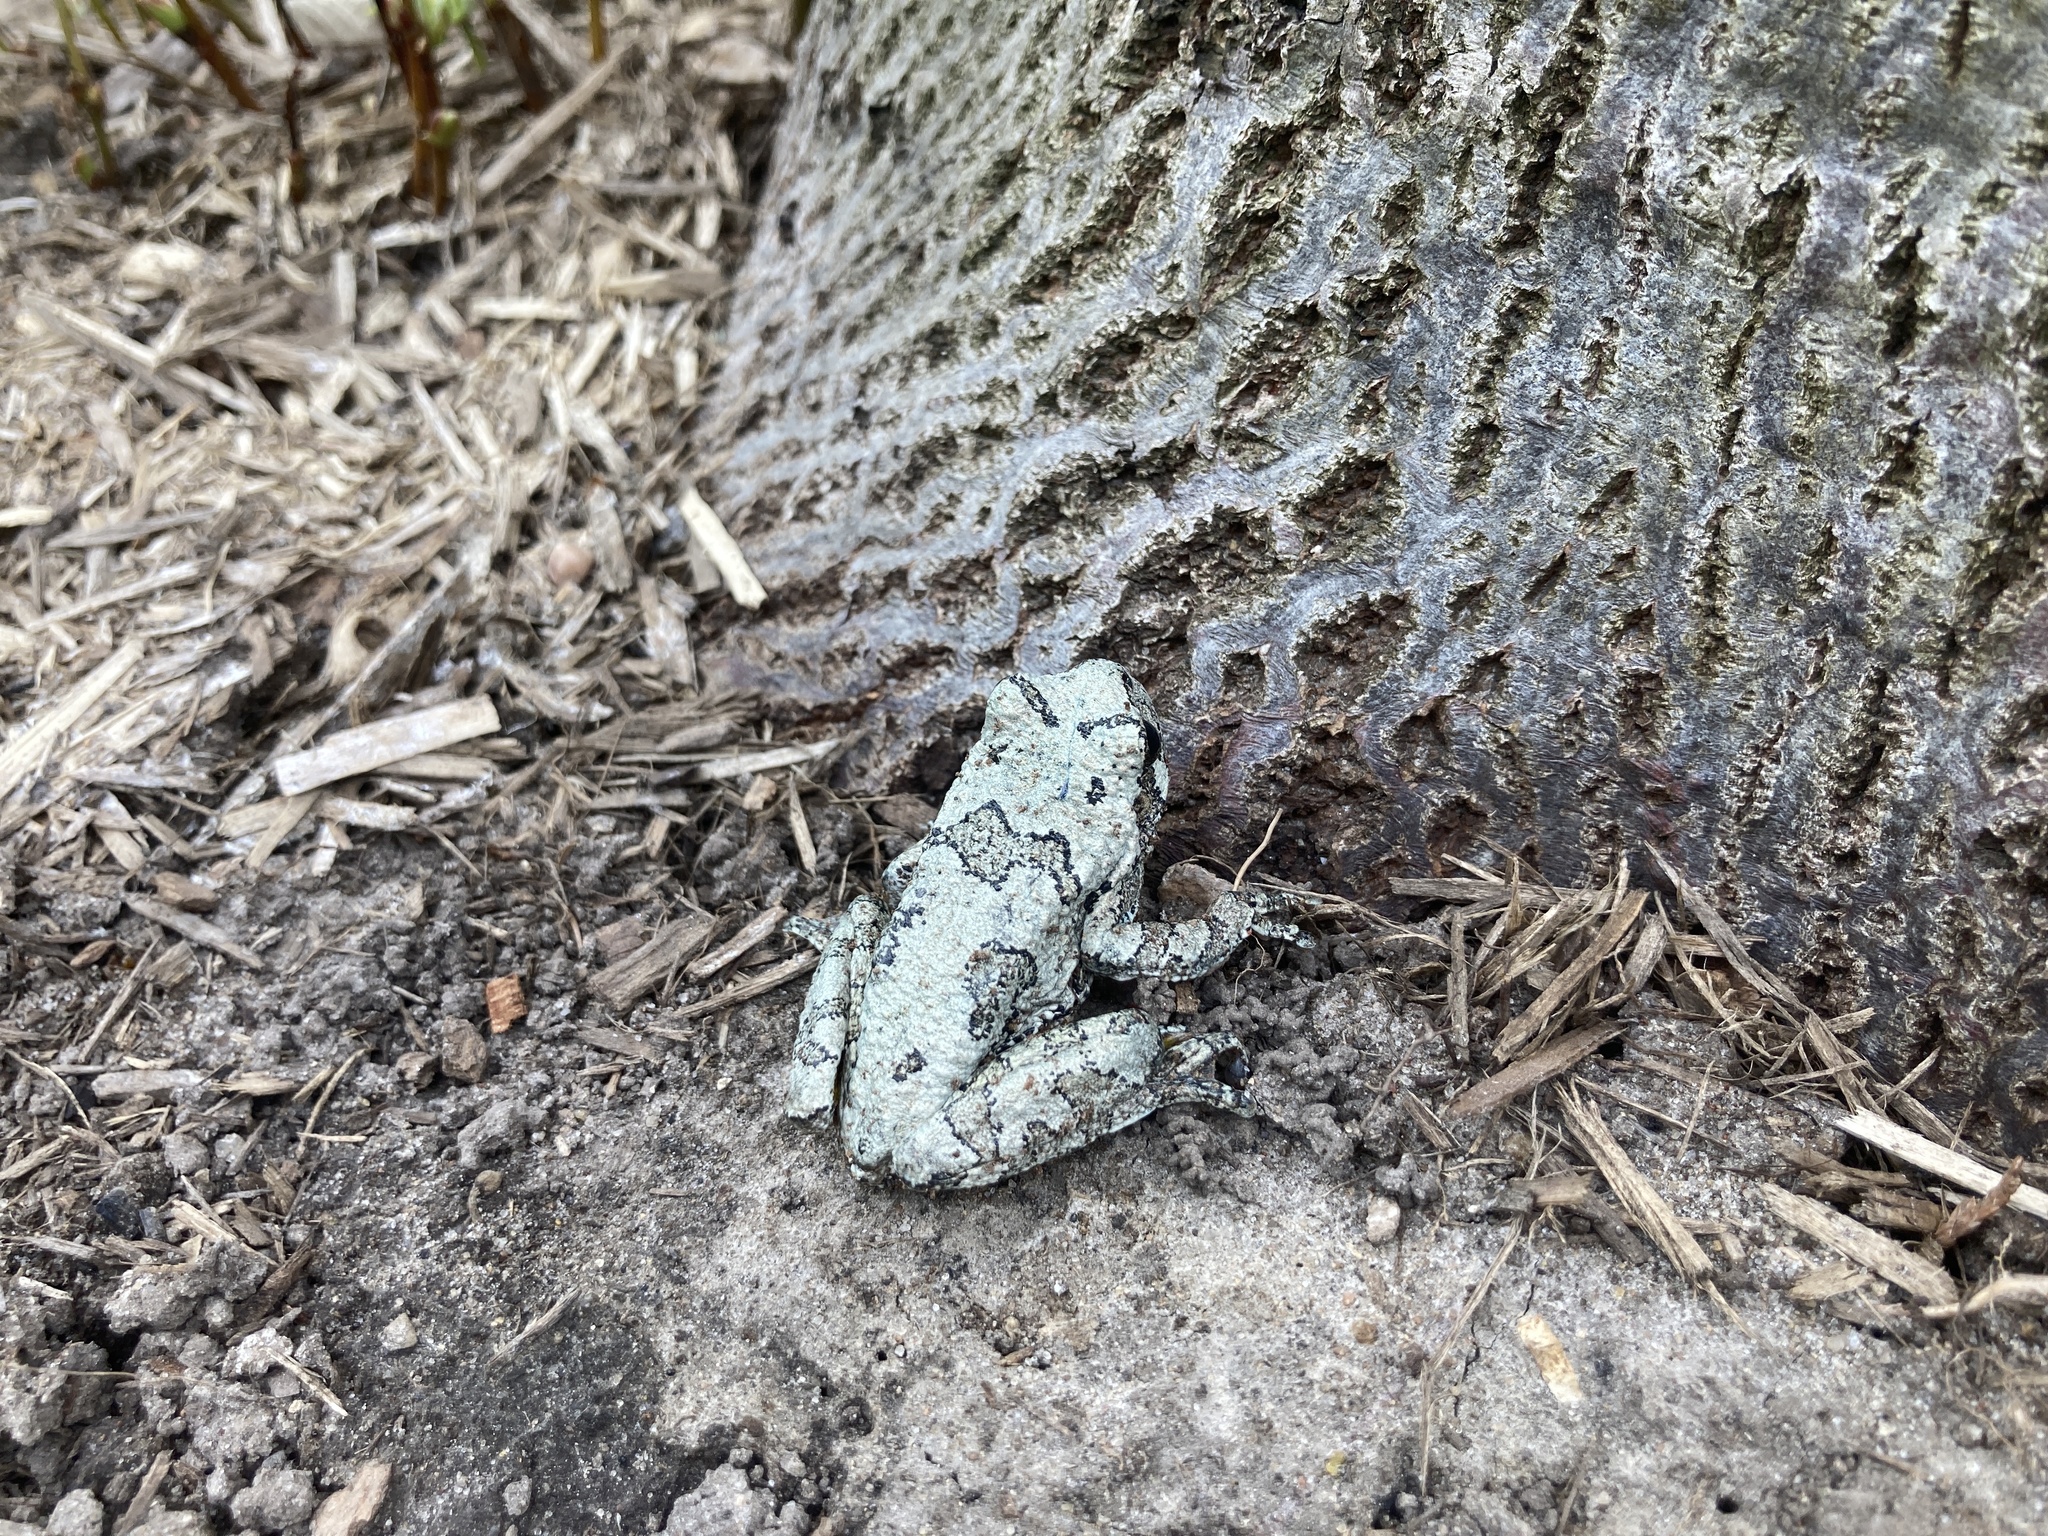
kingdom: Animalia
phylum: Chordata
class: Amphibia
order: Anura
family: Hylidae
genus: Dryophytes
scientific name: Dryophytes versicolor
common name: Gray treefrog
